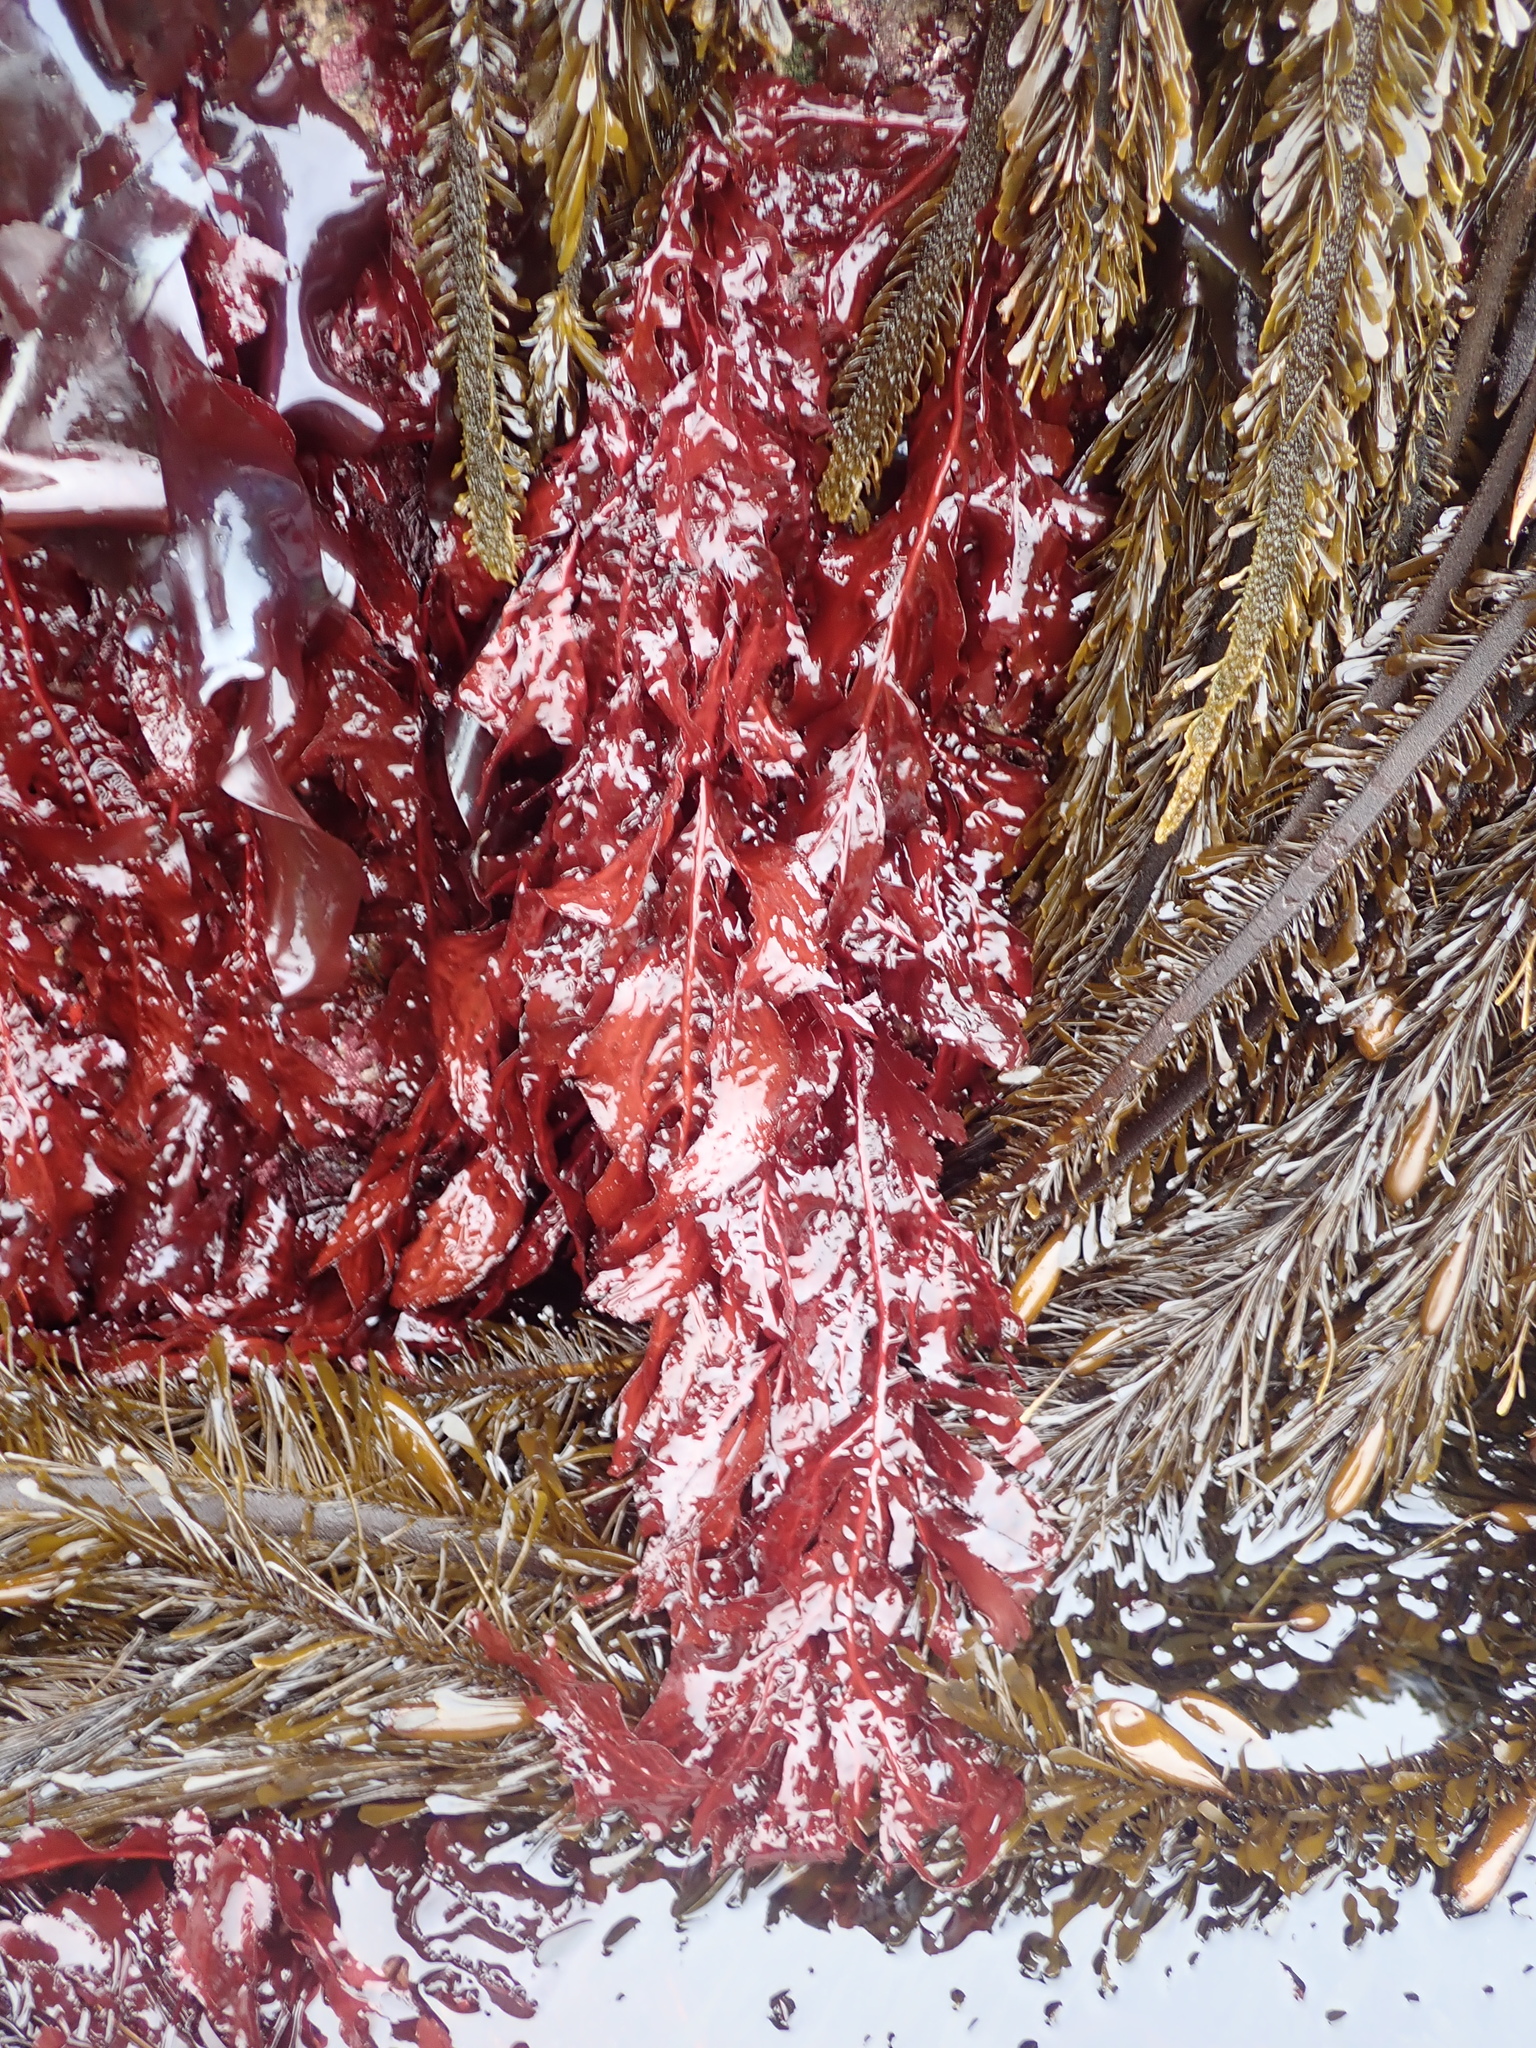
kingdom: Plantae
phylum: Rhodophyta
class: Florideophyceae
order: Gigartinales
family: Kallymeniaceae
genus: Erythrophyllum
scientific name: Erythrophyllum delesserioides
